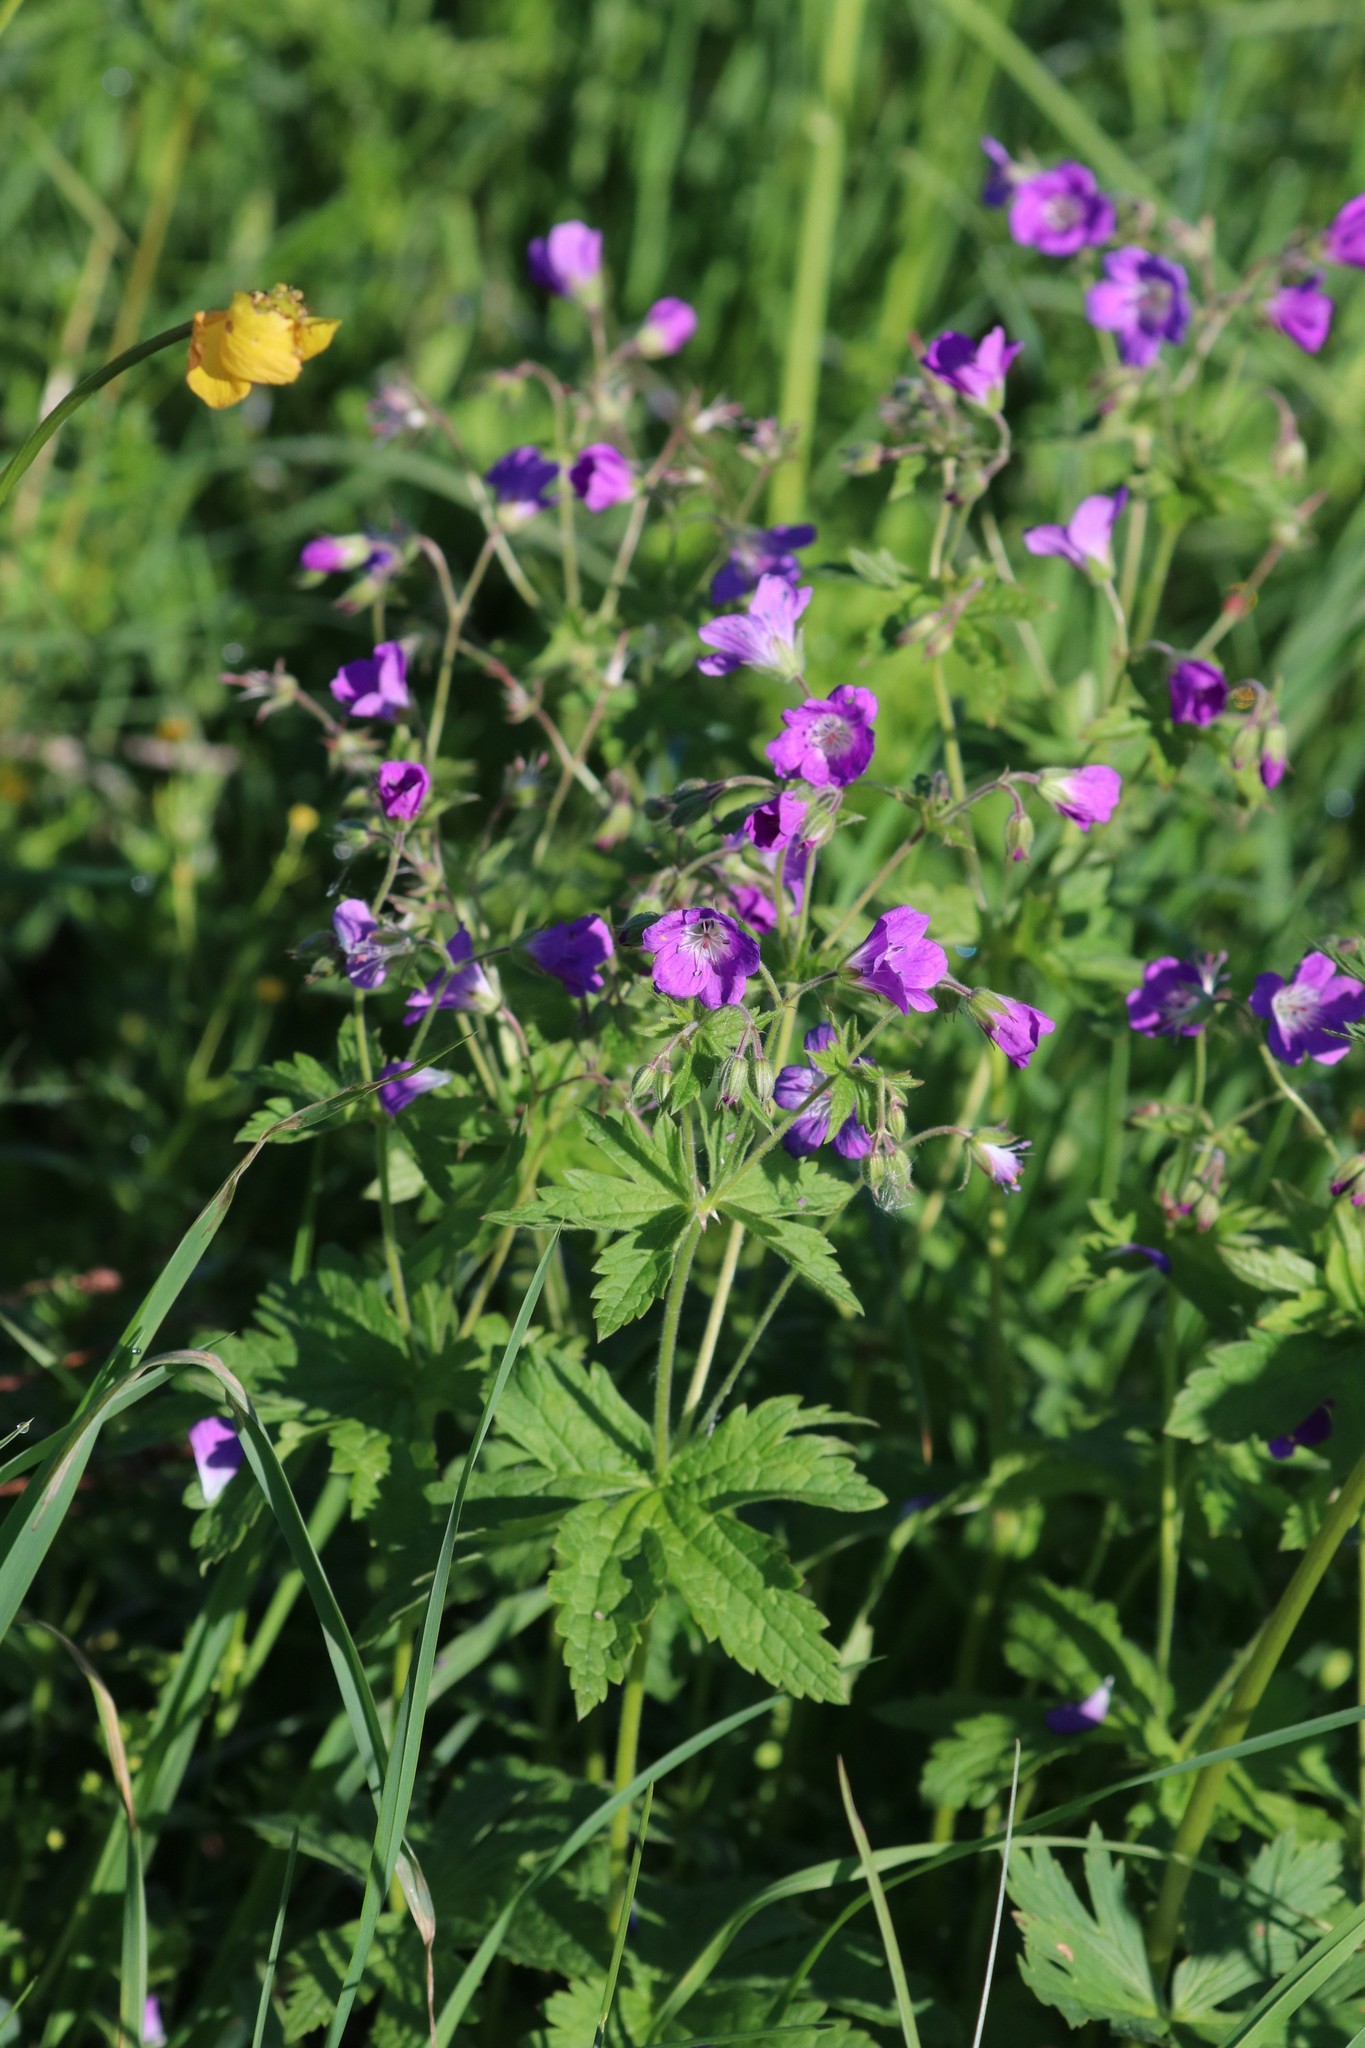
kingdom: Plantae
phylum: Tracheophyta
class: Magnoliopsida
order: Geraniales
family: Geraniaceae
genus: Geranium
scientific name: Geranium sylvaticum
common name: Wood crane's-bill
